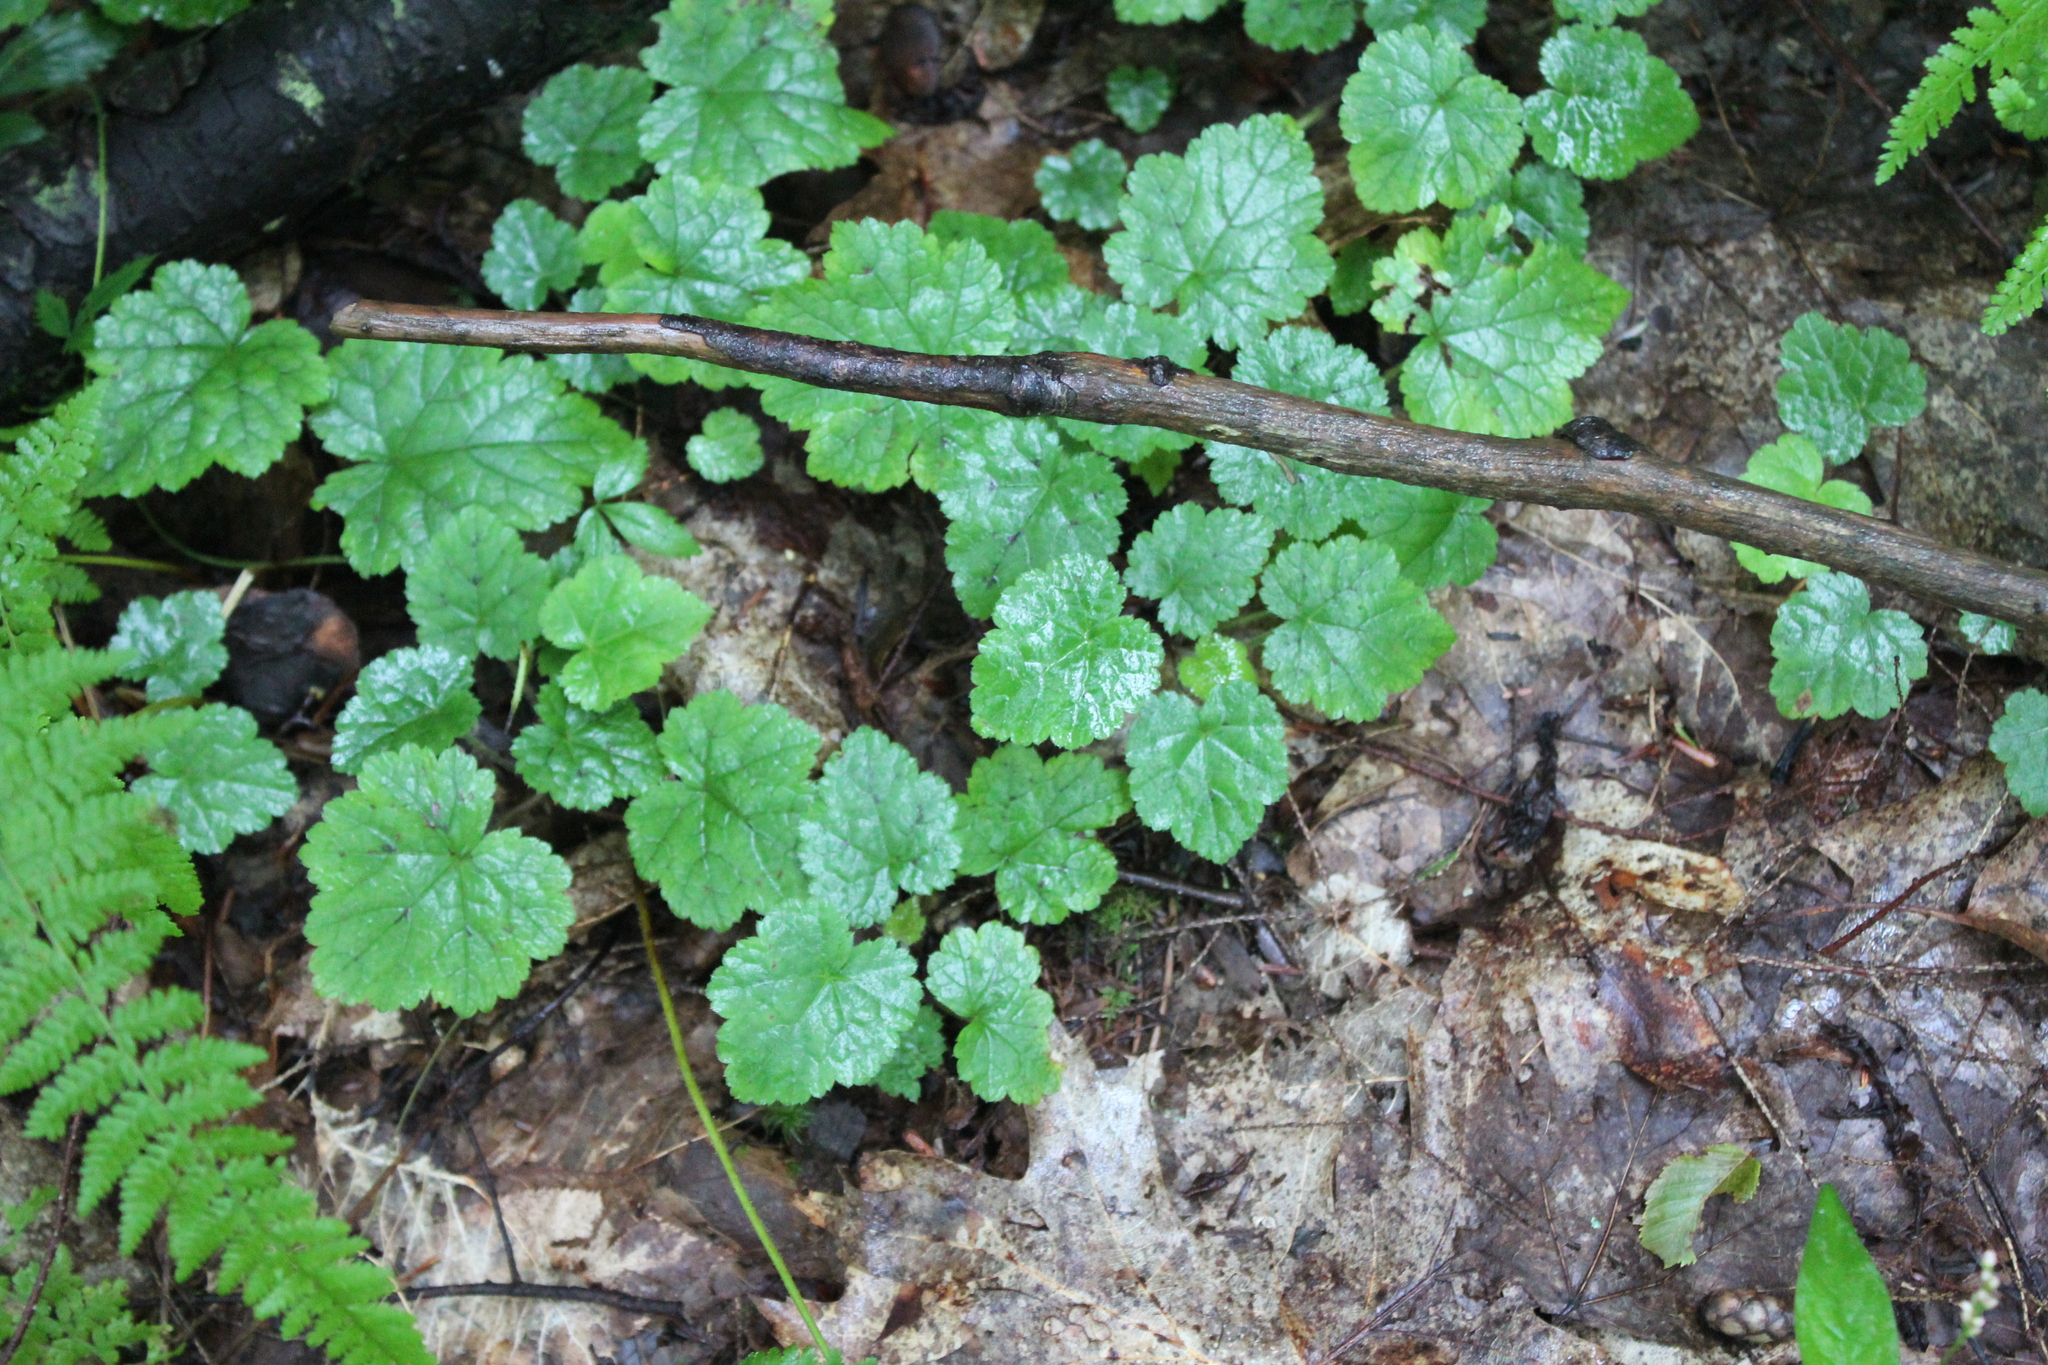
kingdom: Plantae
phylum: Tracheophyta
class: Magnoliopsida
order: Saxifragales
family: Saxifragaceae
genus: Tiarella
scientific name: Tiarella stolonifera
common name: Stoloniferous foamflower
